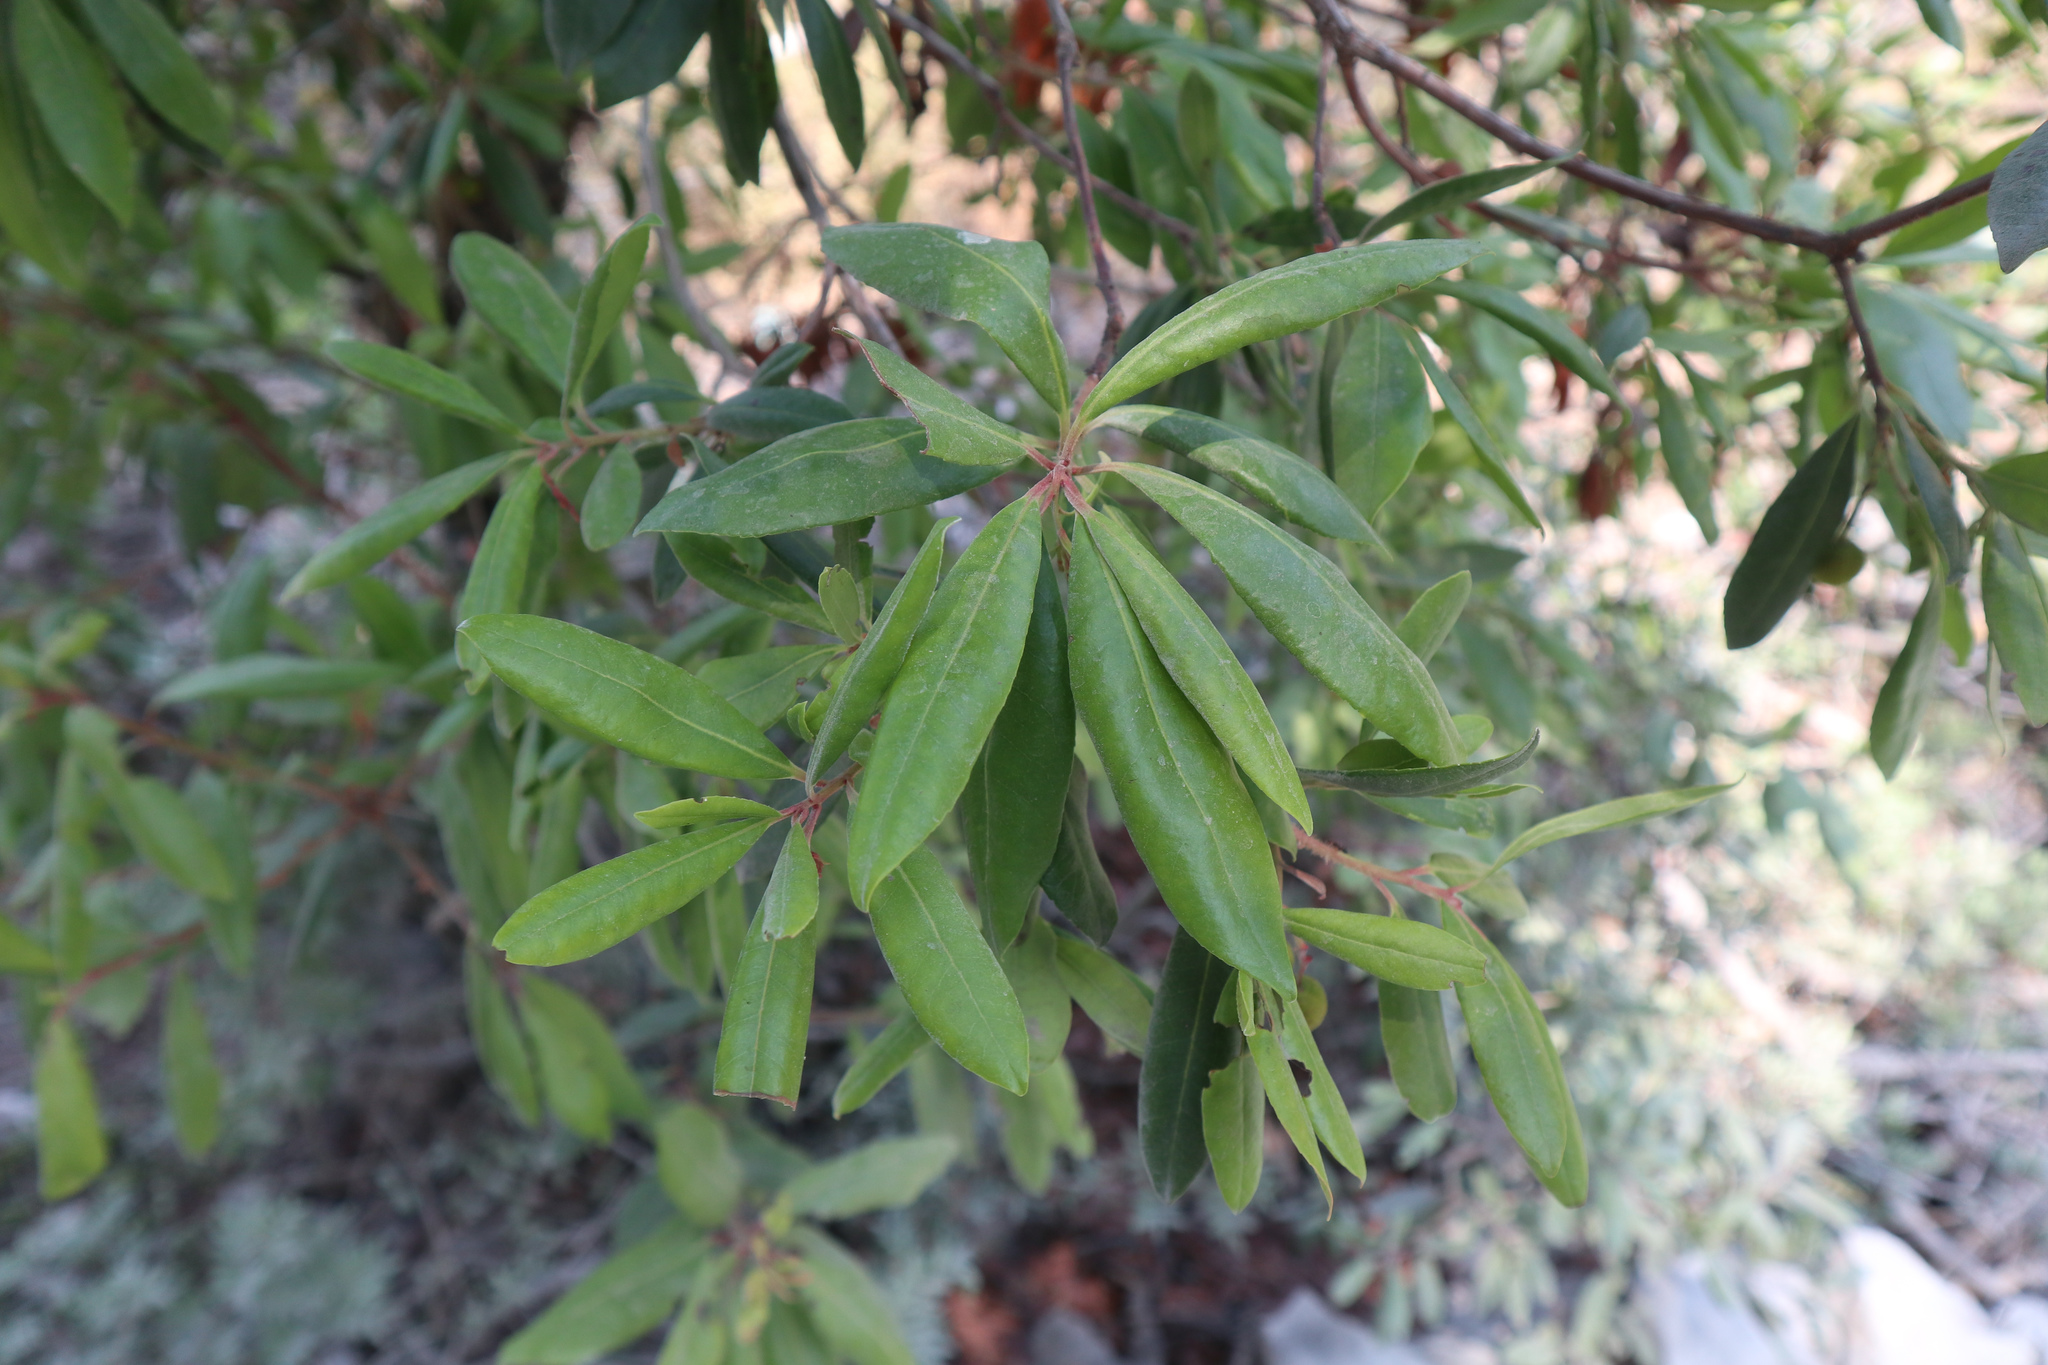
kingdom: Plantae
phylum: Tracheophyta
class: Magnoliopsida
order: Ericales
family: Ericaceae
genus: Arbutus
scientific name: Arbutus unedo
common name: Strawberry-tree
